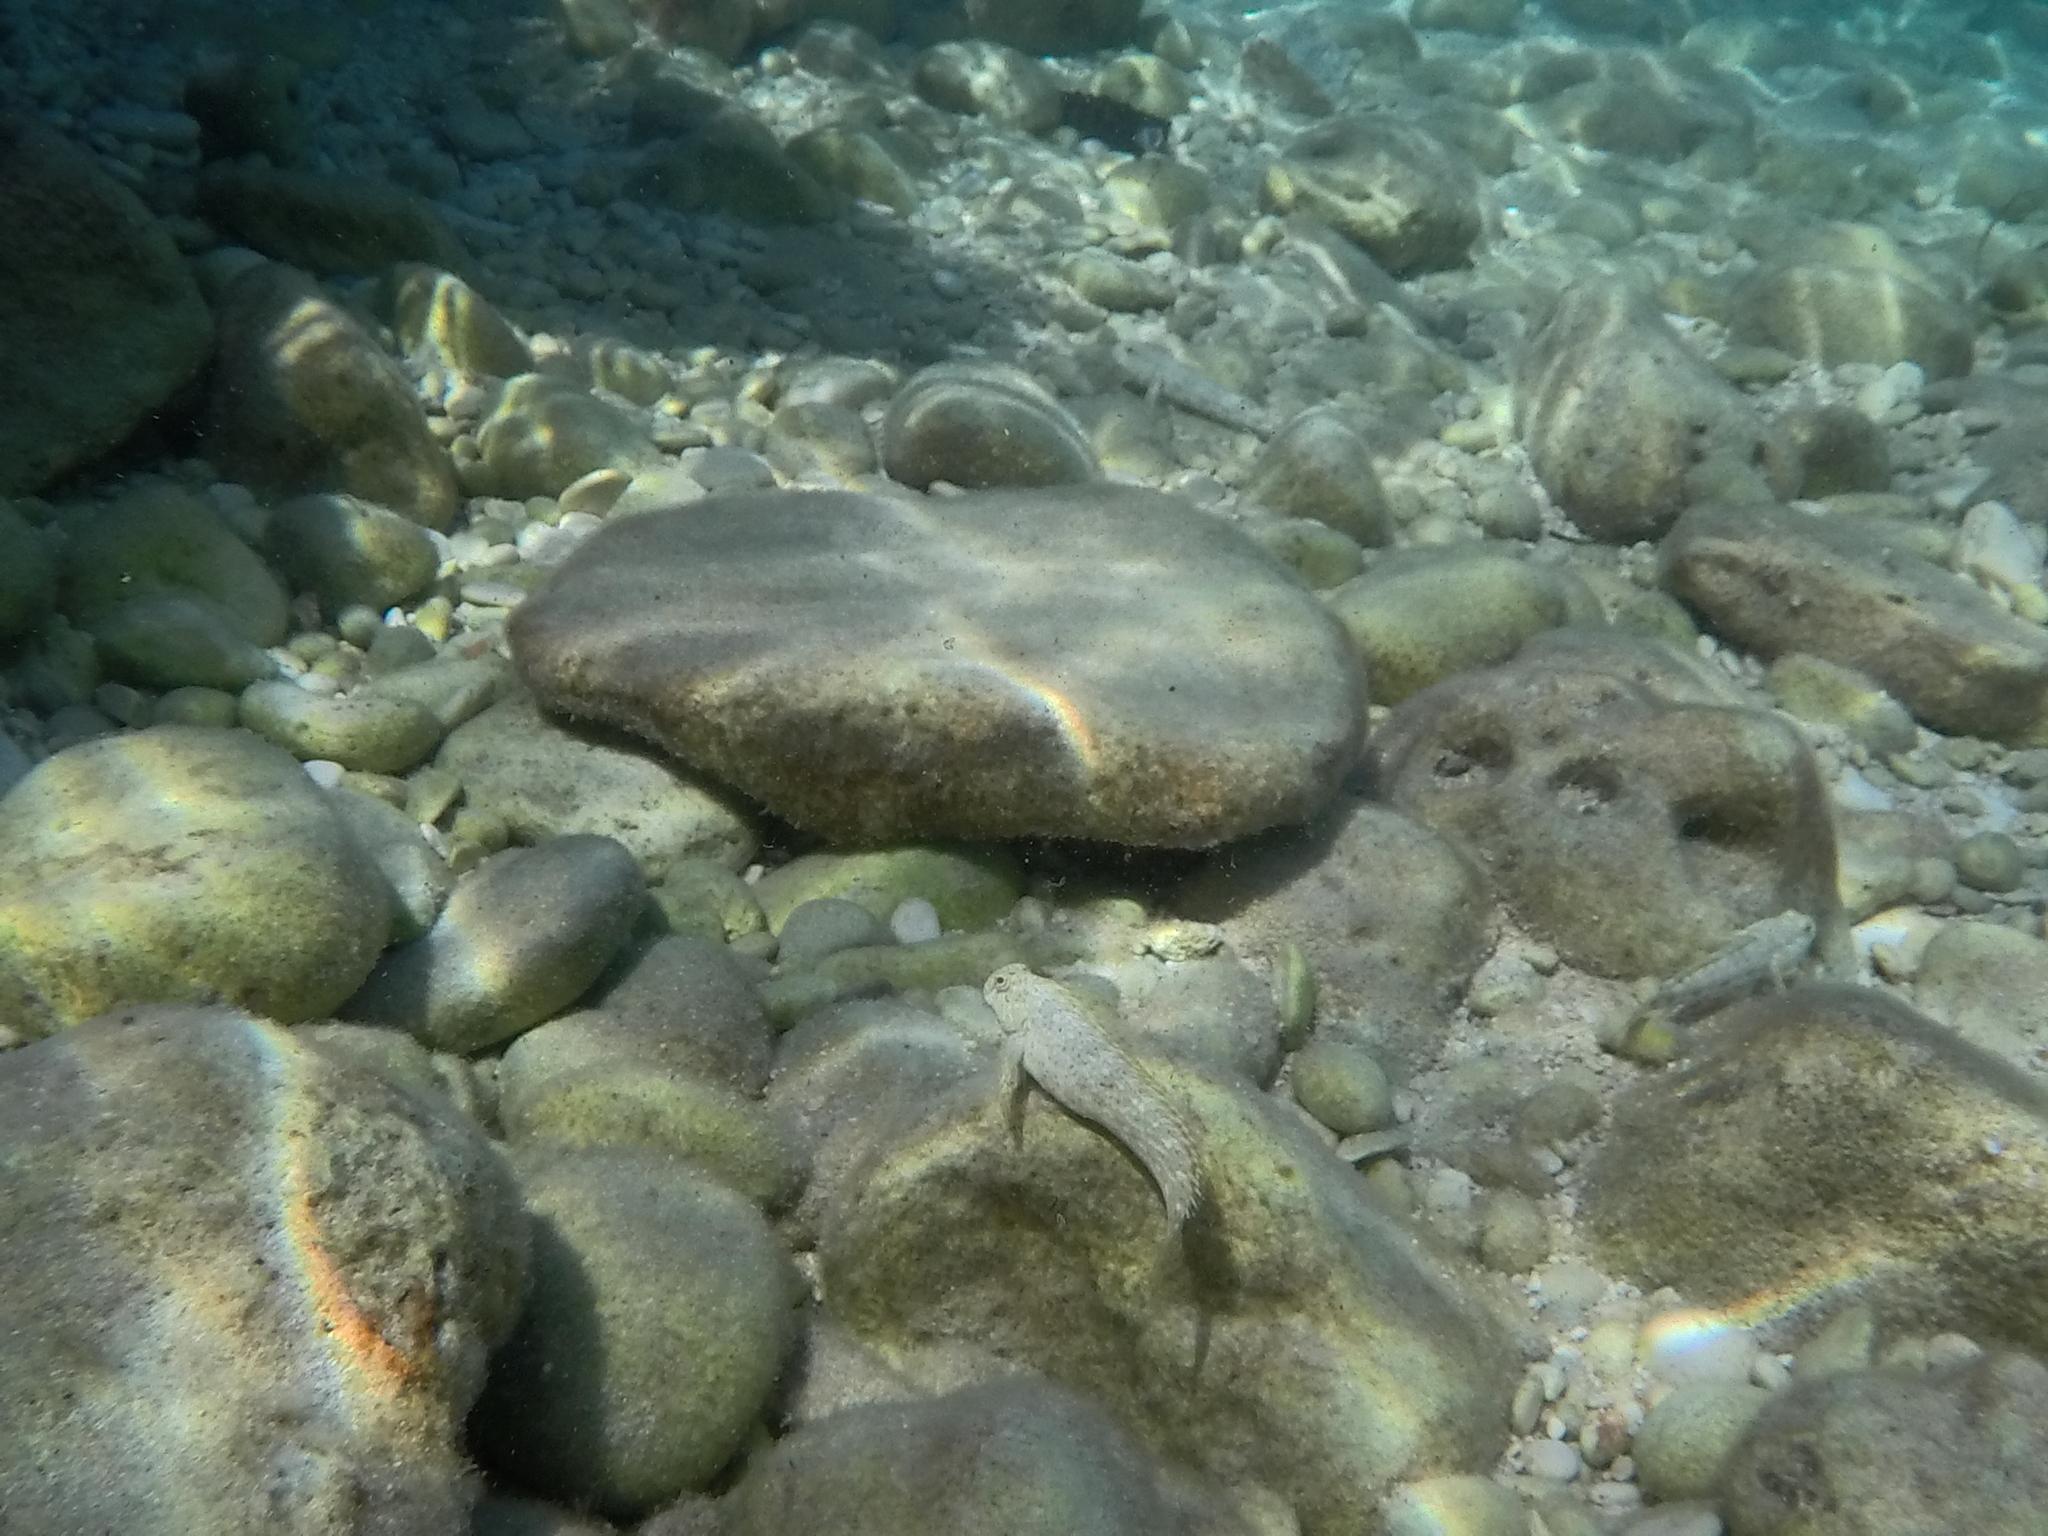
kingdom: Animalia
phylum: Chordata
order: Perciformes
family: Blenniidae
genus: Parablennius
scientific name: Parablennius sanguinolentus
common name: Black sea blenny
